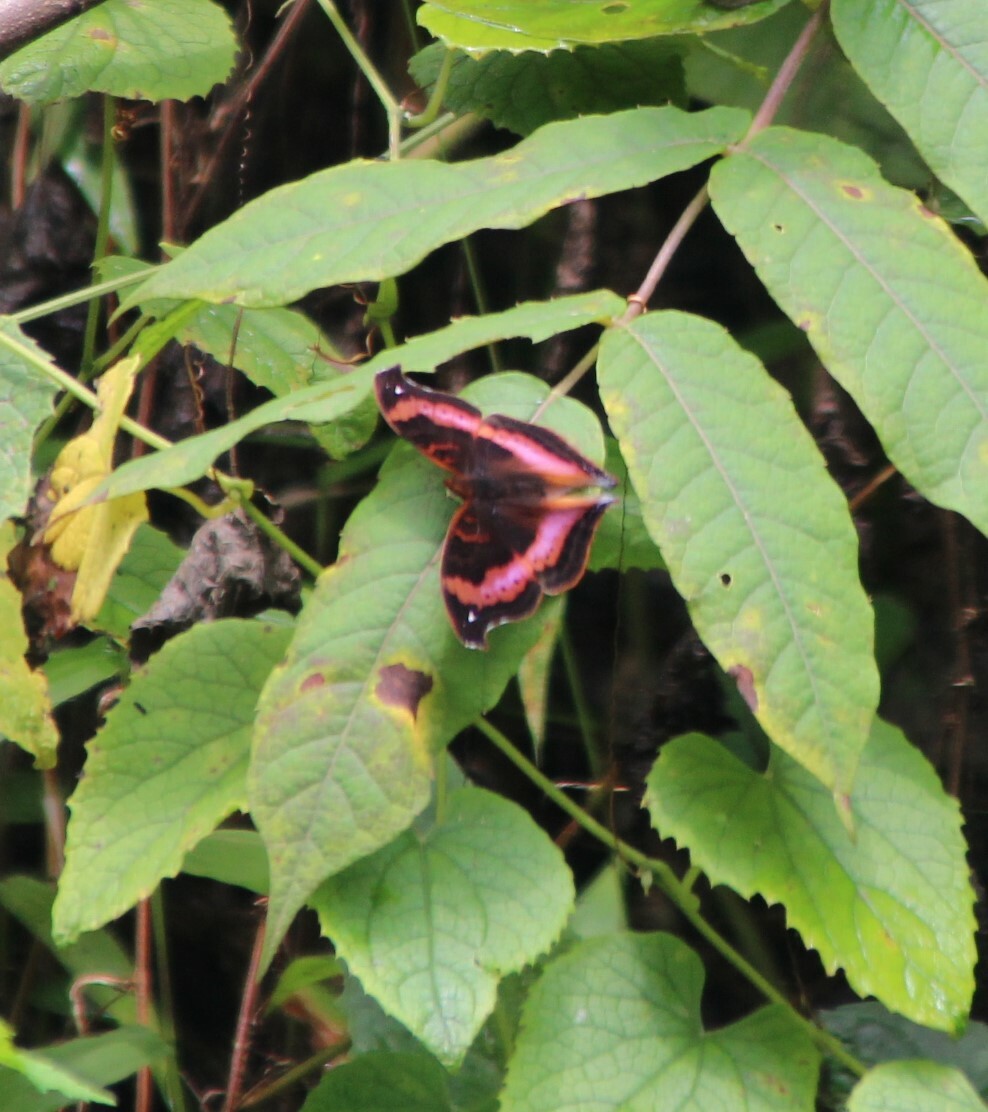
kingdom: Animalia
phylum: Arthropoda
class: Insecta
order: Lepidoptera
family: Nymphalidae
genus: Junonia
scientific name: Junonia sinuata
